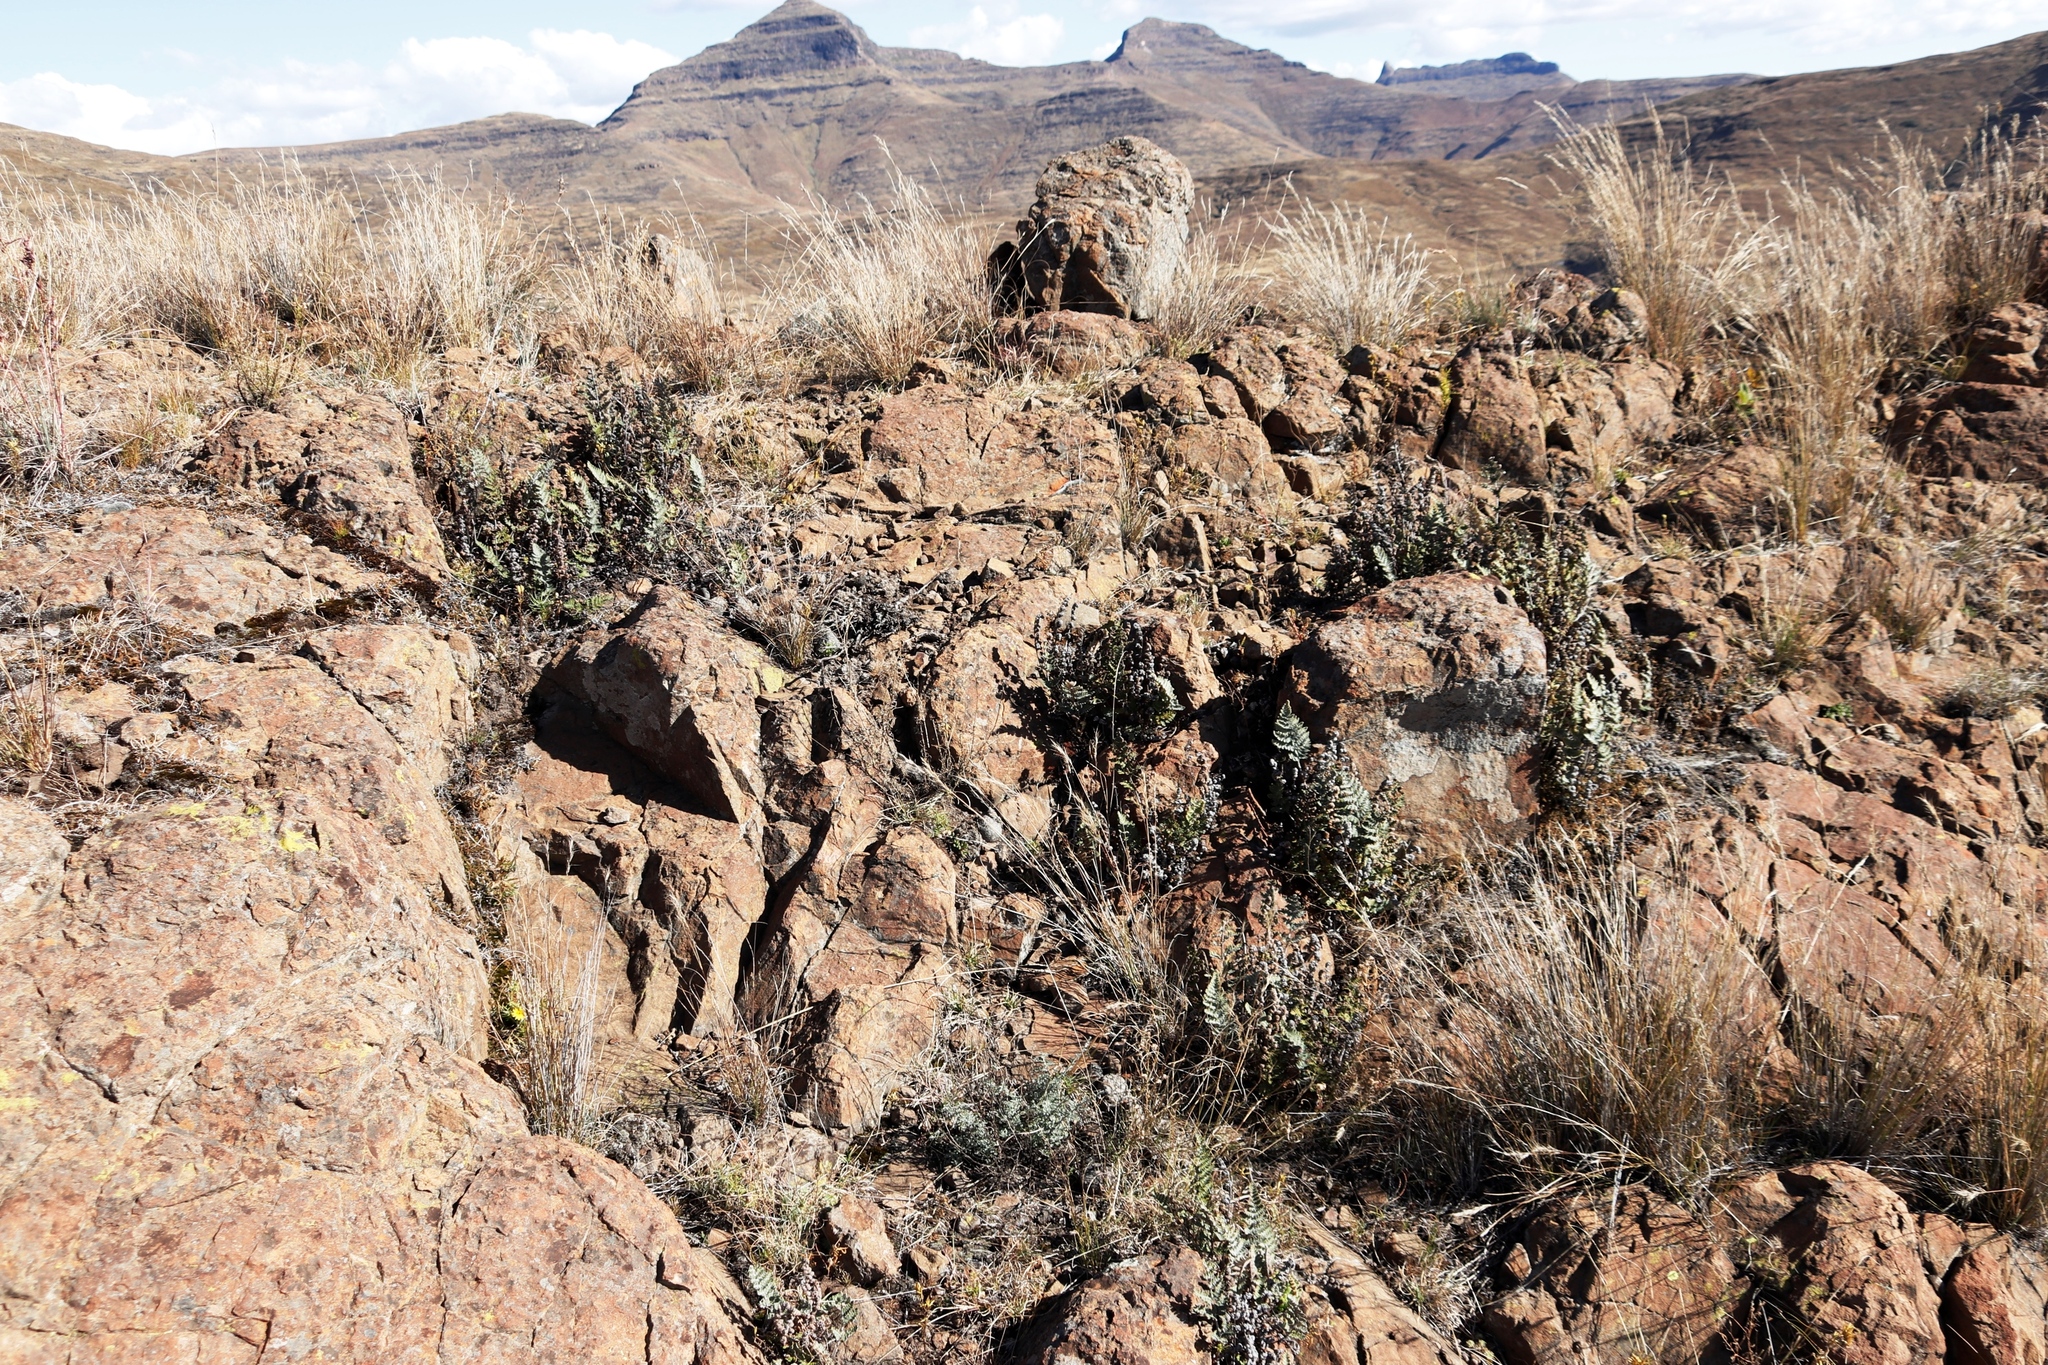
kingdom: Plantae
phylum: Tracheophyta
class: Polypodiopsida
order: Polypodiales
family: Pteridaceae
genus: Cheilanthes
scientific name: Cheilanthes eckloniana
